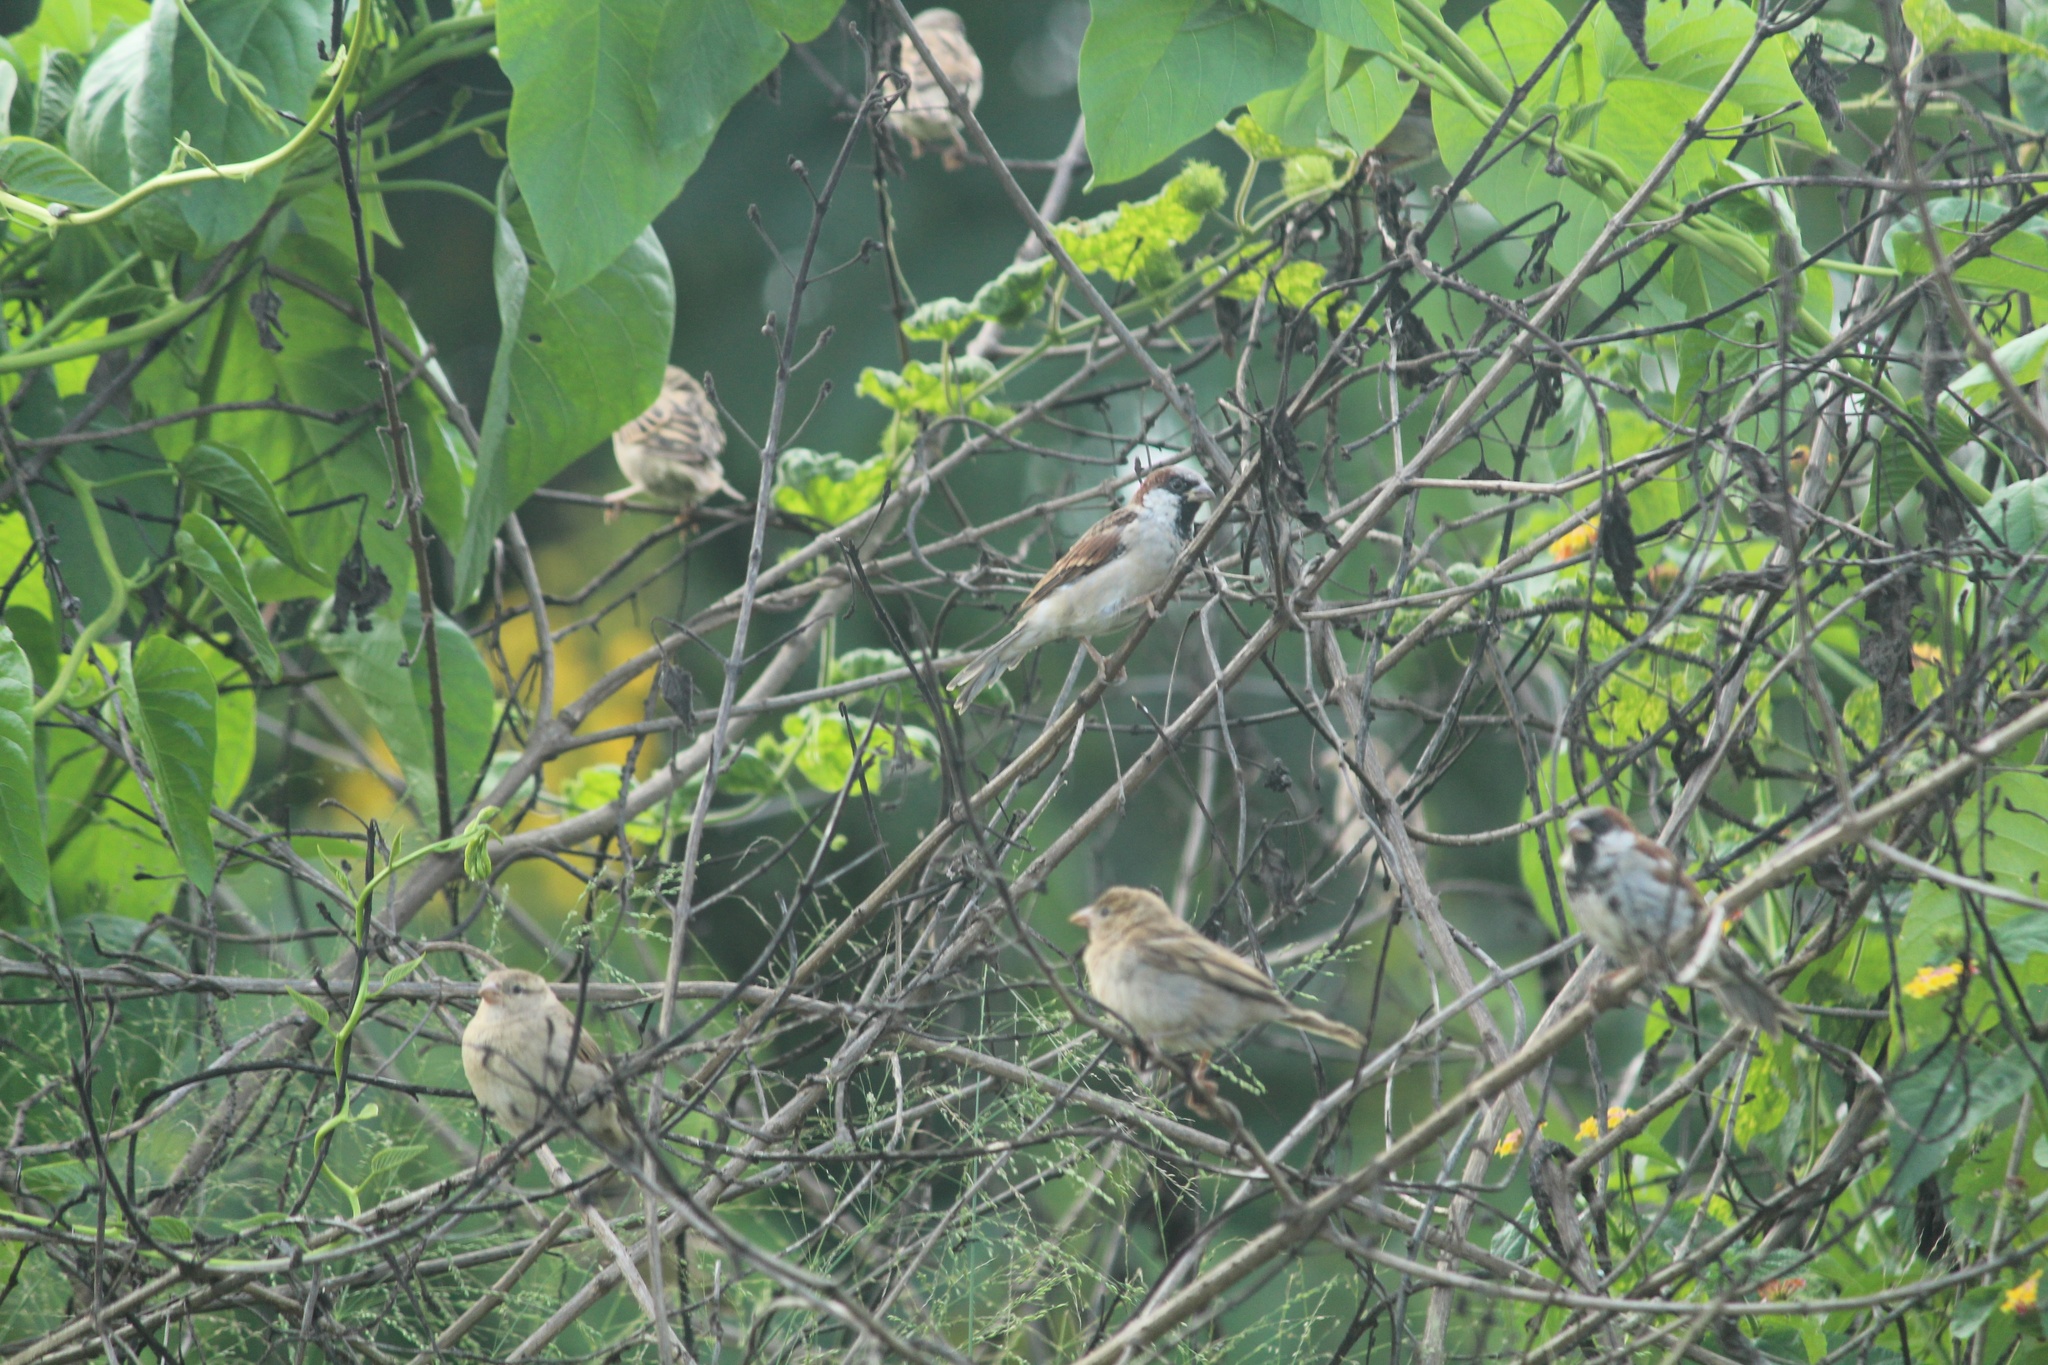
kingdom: Animalia
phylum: Chordata
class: Aves
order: Passeriformes
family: Passeridae
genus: Passer
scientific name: Passer domesticus
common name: House sparrow
